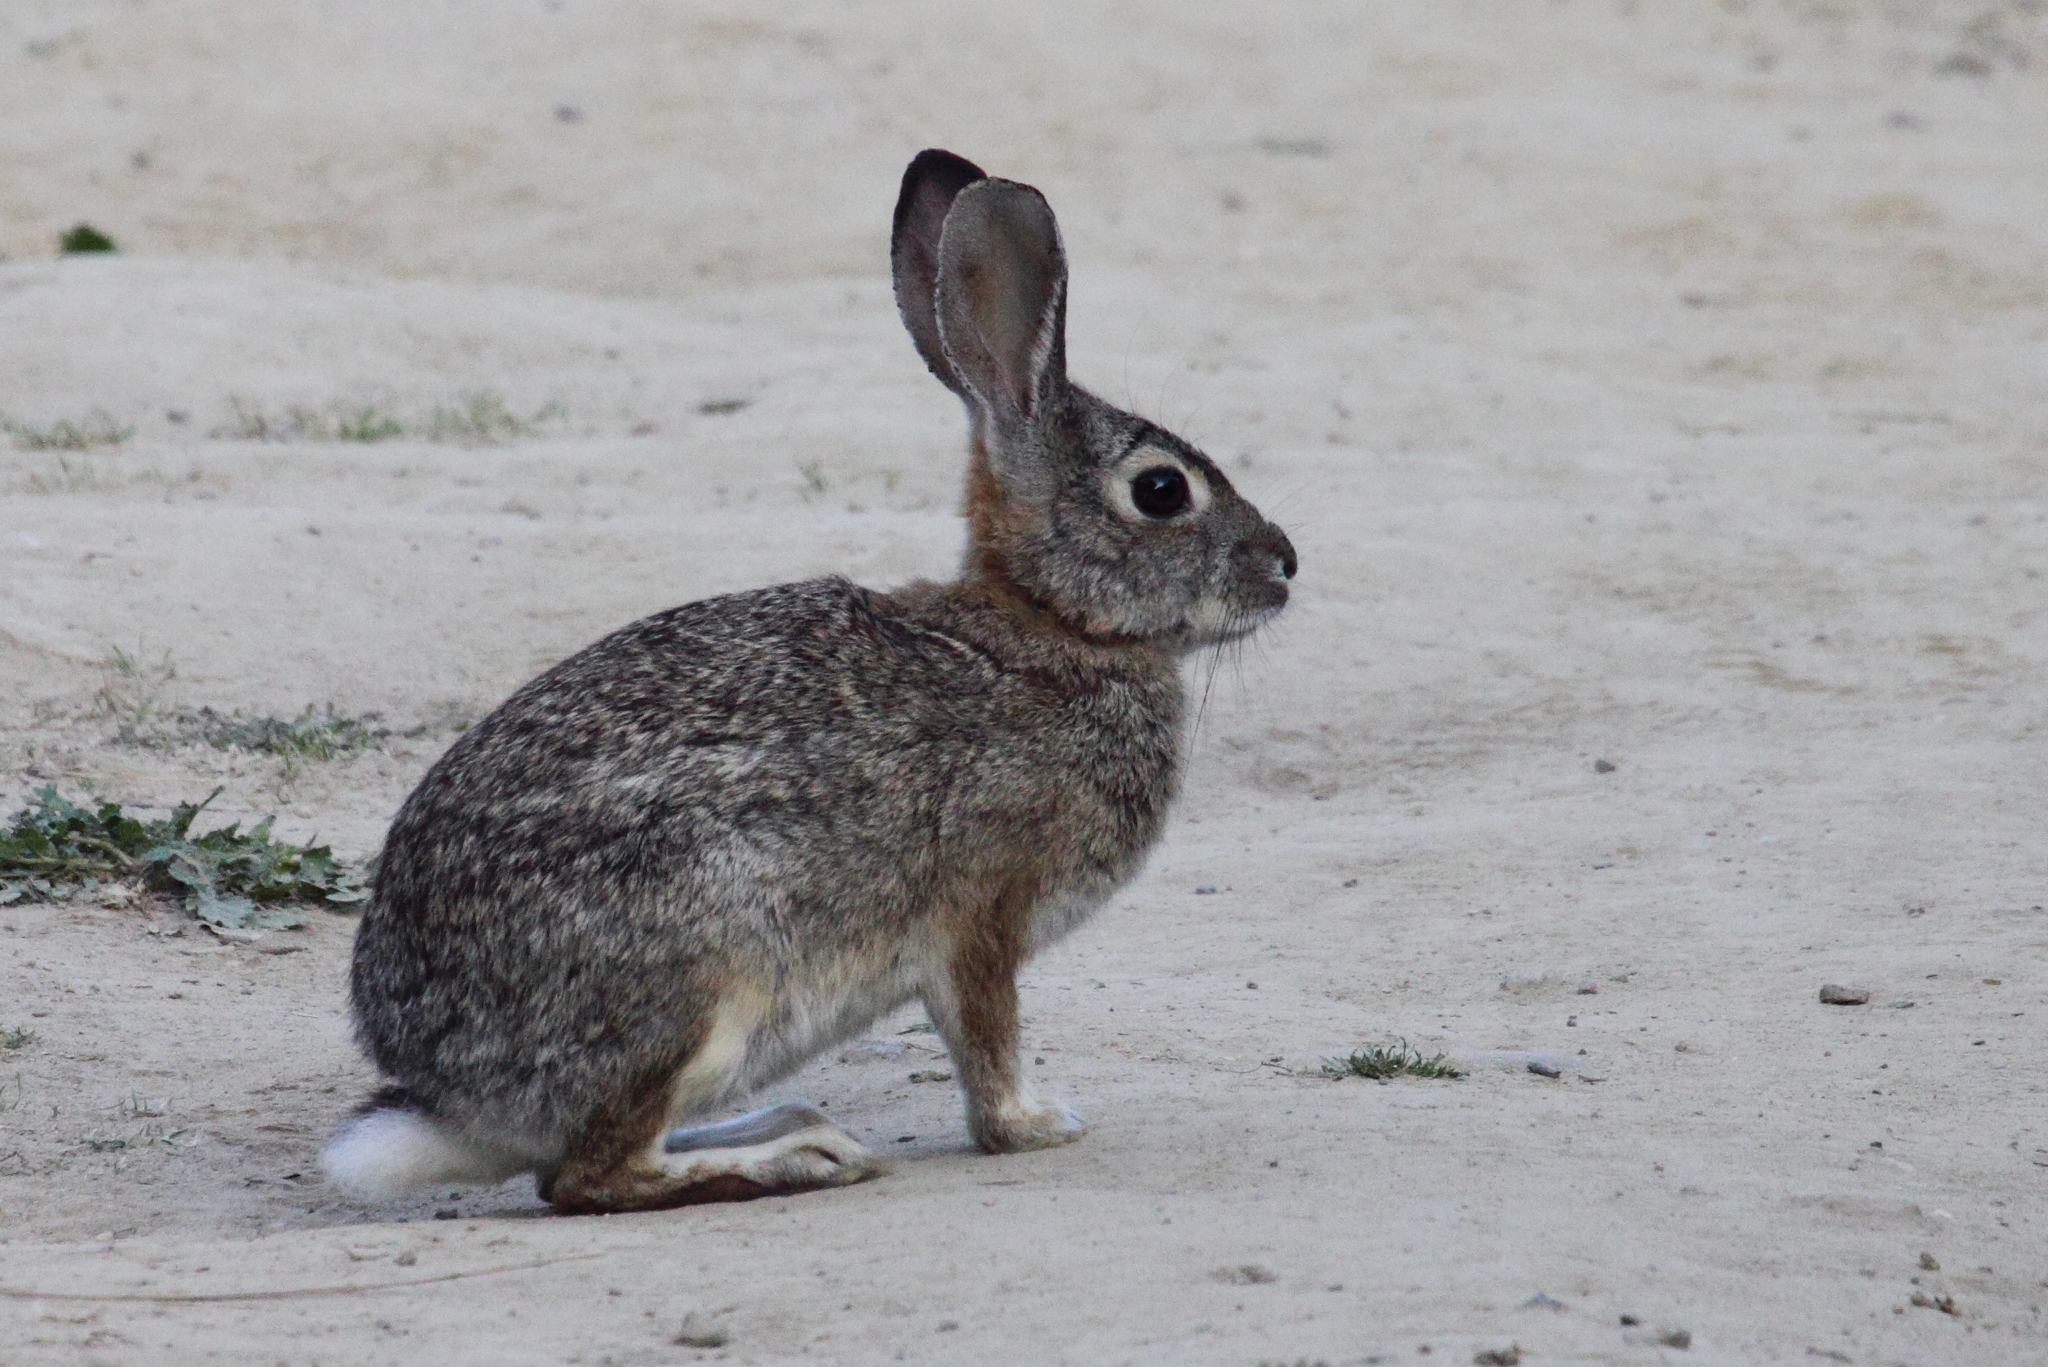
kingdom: Animalia
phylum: Chordata
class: Mammalia
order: Lagomorpha
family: Leporidae
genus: Sylvilagus
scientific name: Sylvilagus audubonii
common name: Desert cottontail
